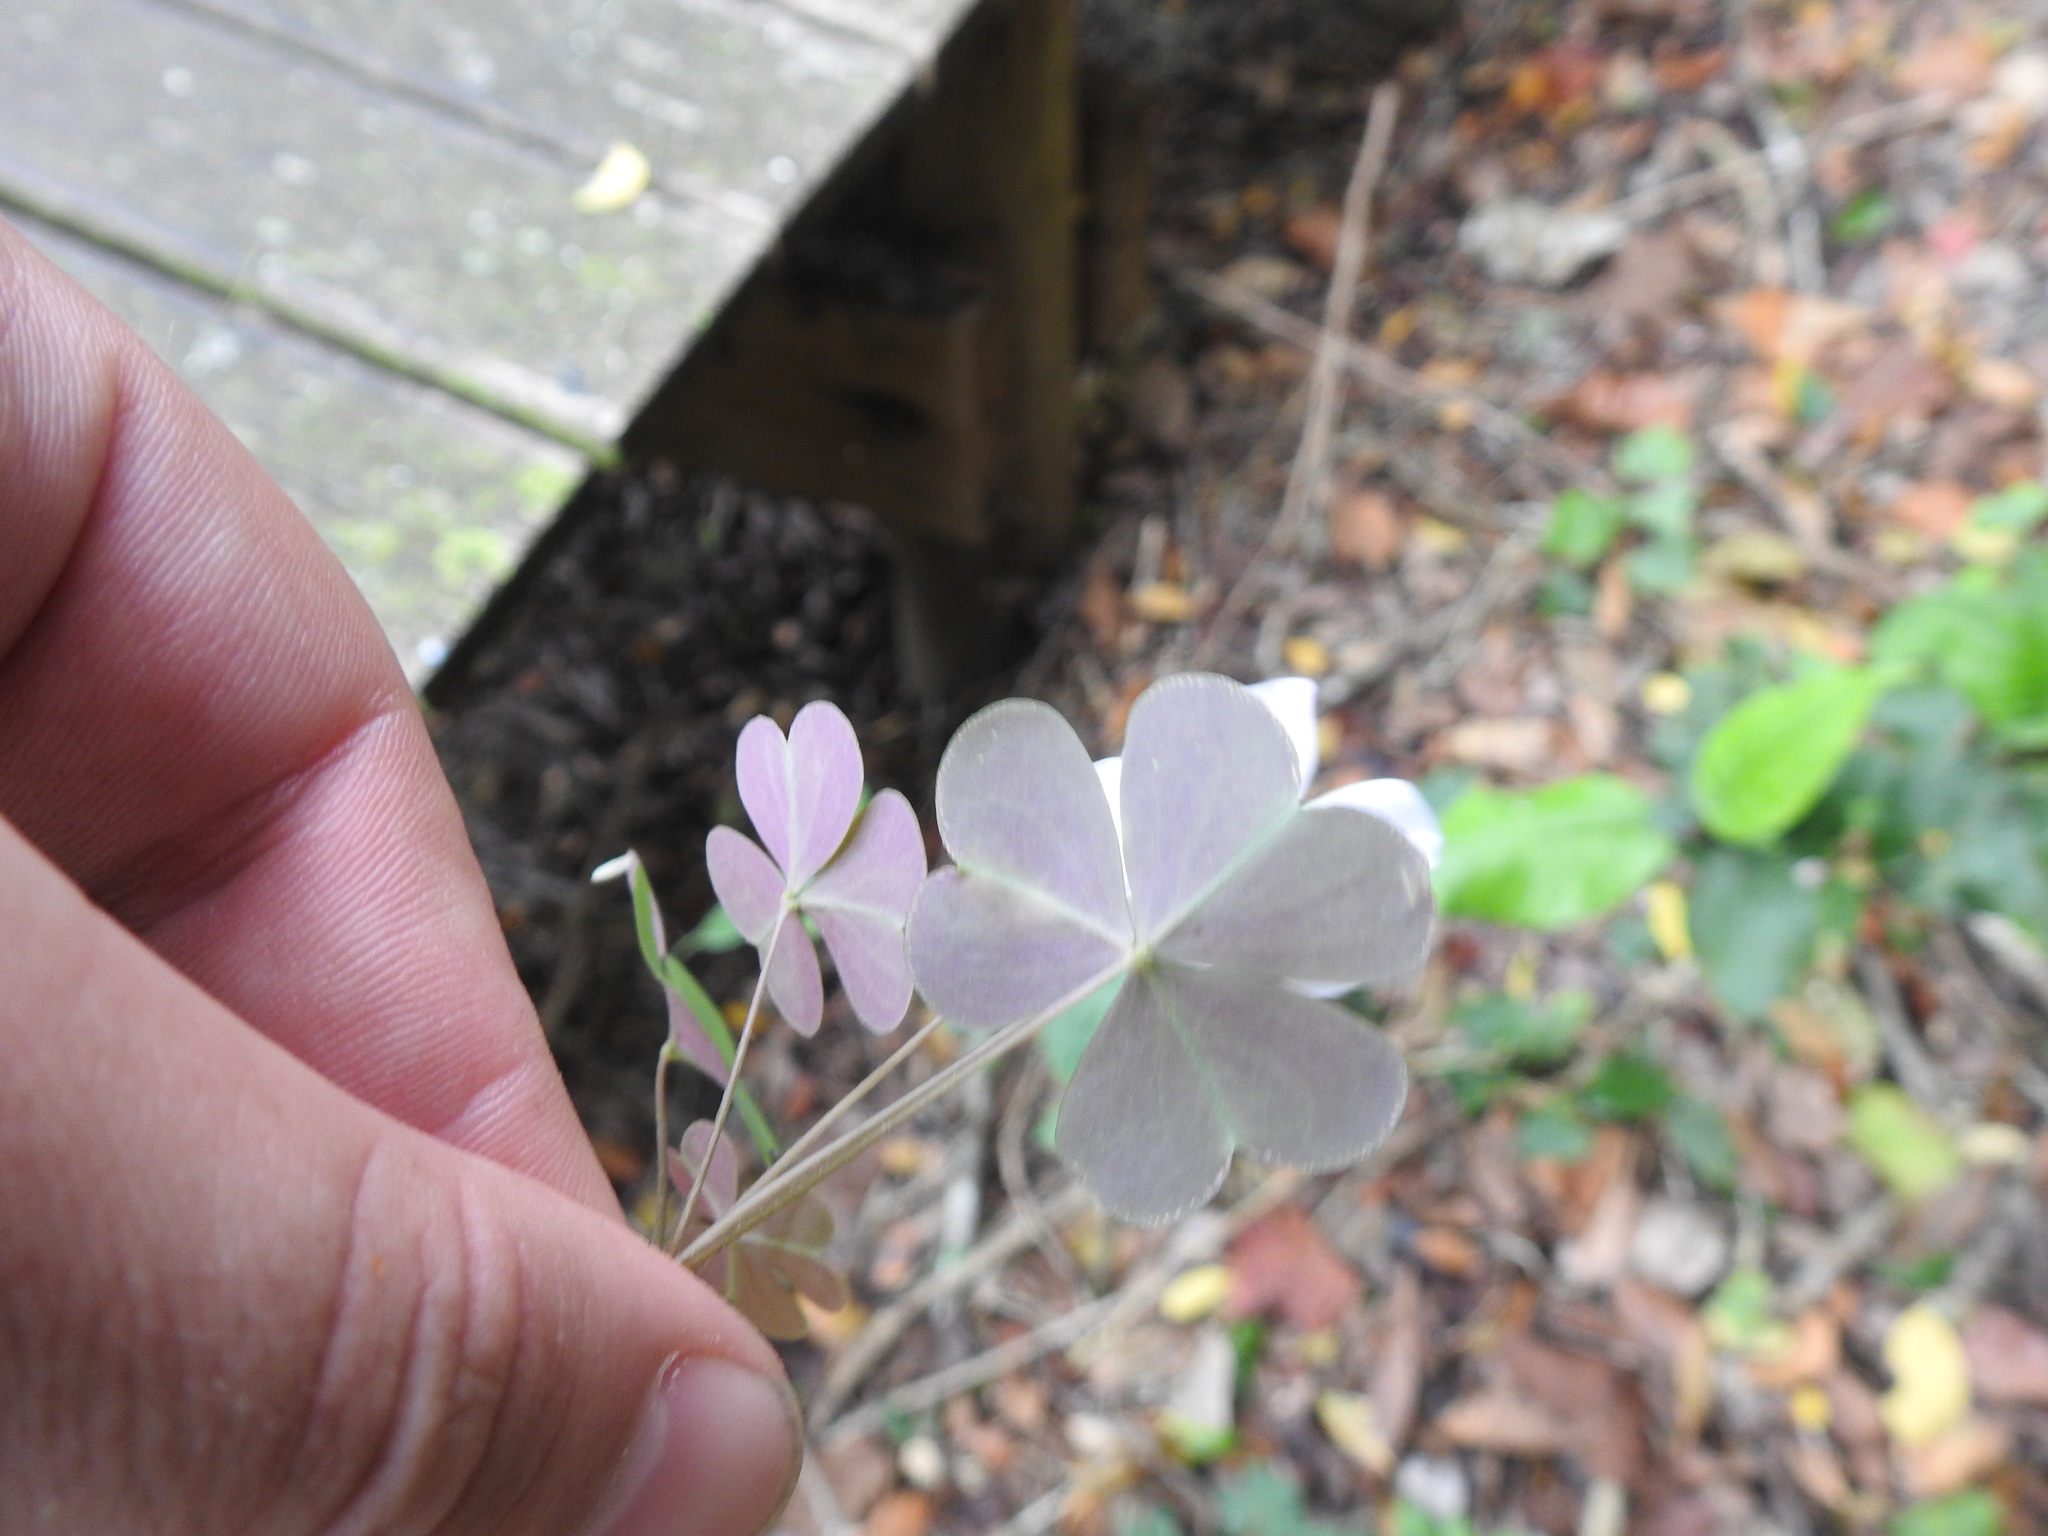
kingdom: Plantae
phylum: Tracheophyta
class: Magnoliopsida
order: Oxalidales
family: Oxalidaceae
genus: Oxalis
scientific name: Oxalis incarnata
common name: Pale pink-sorrel
